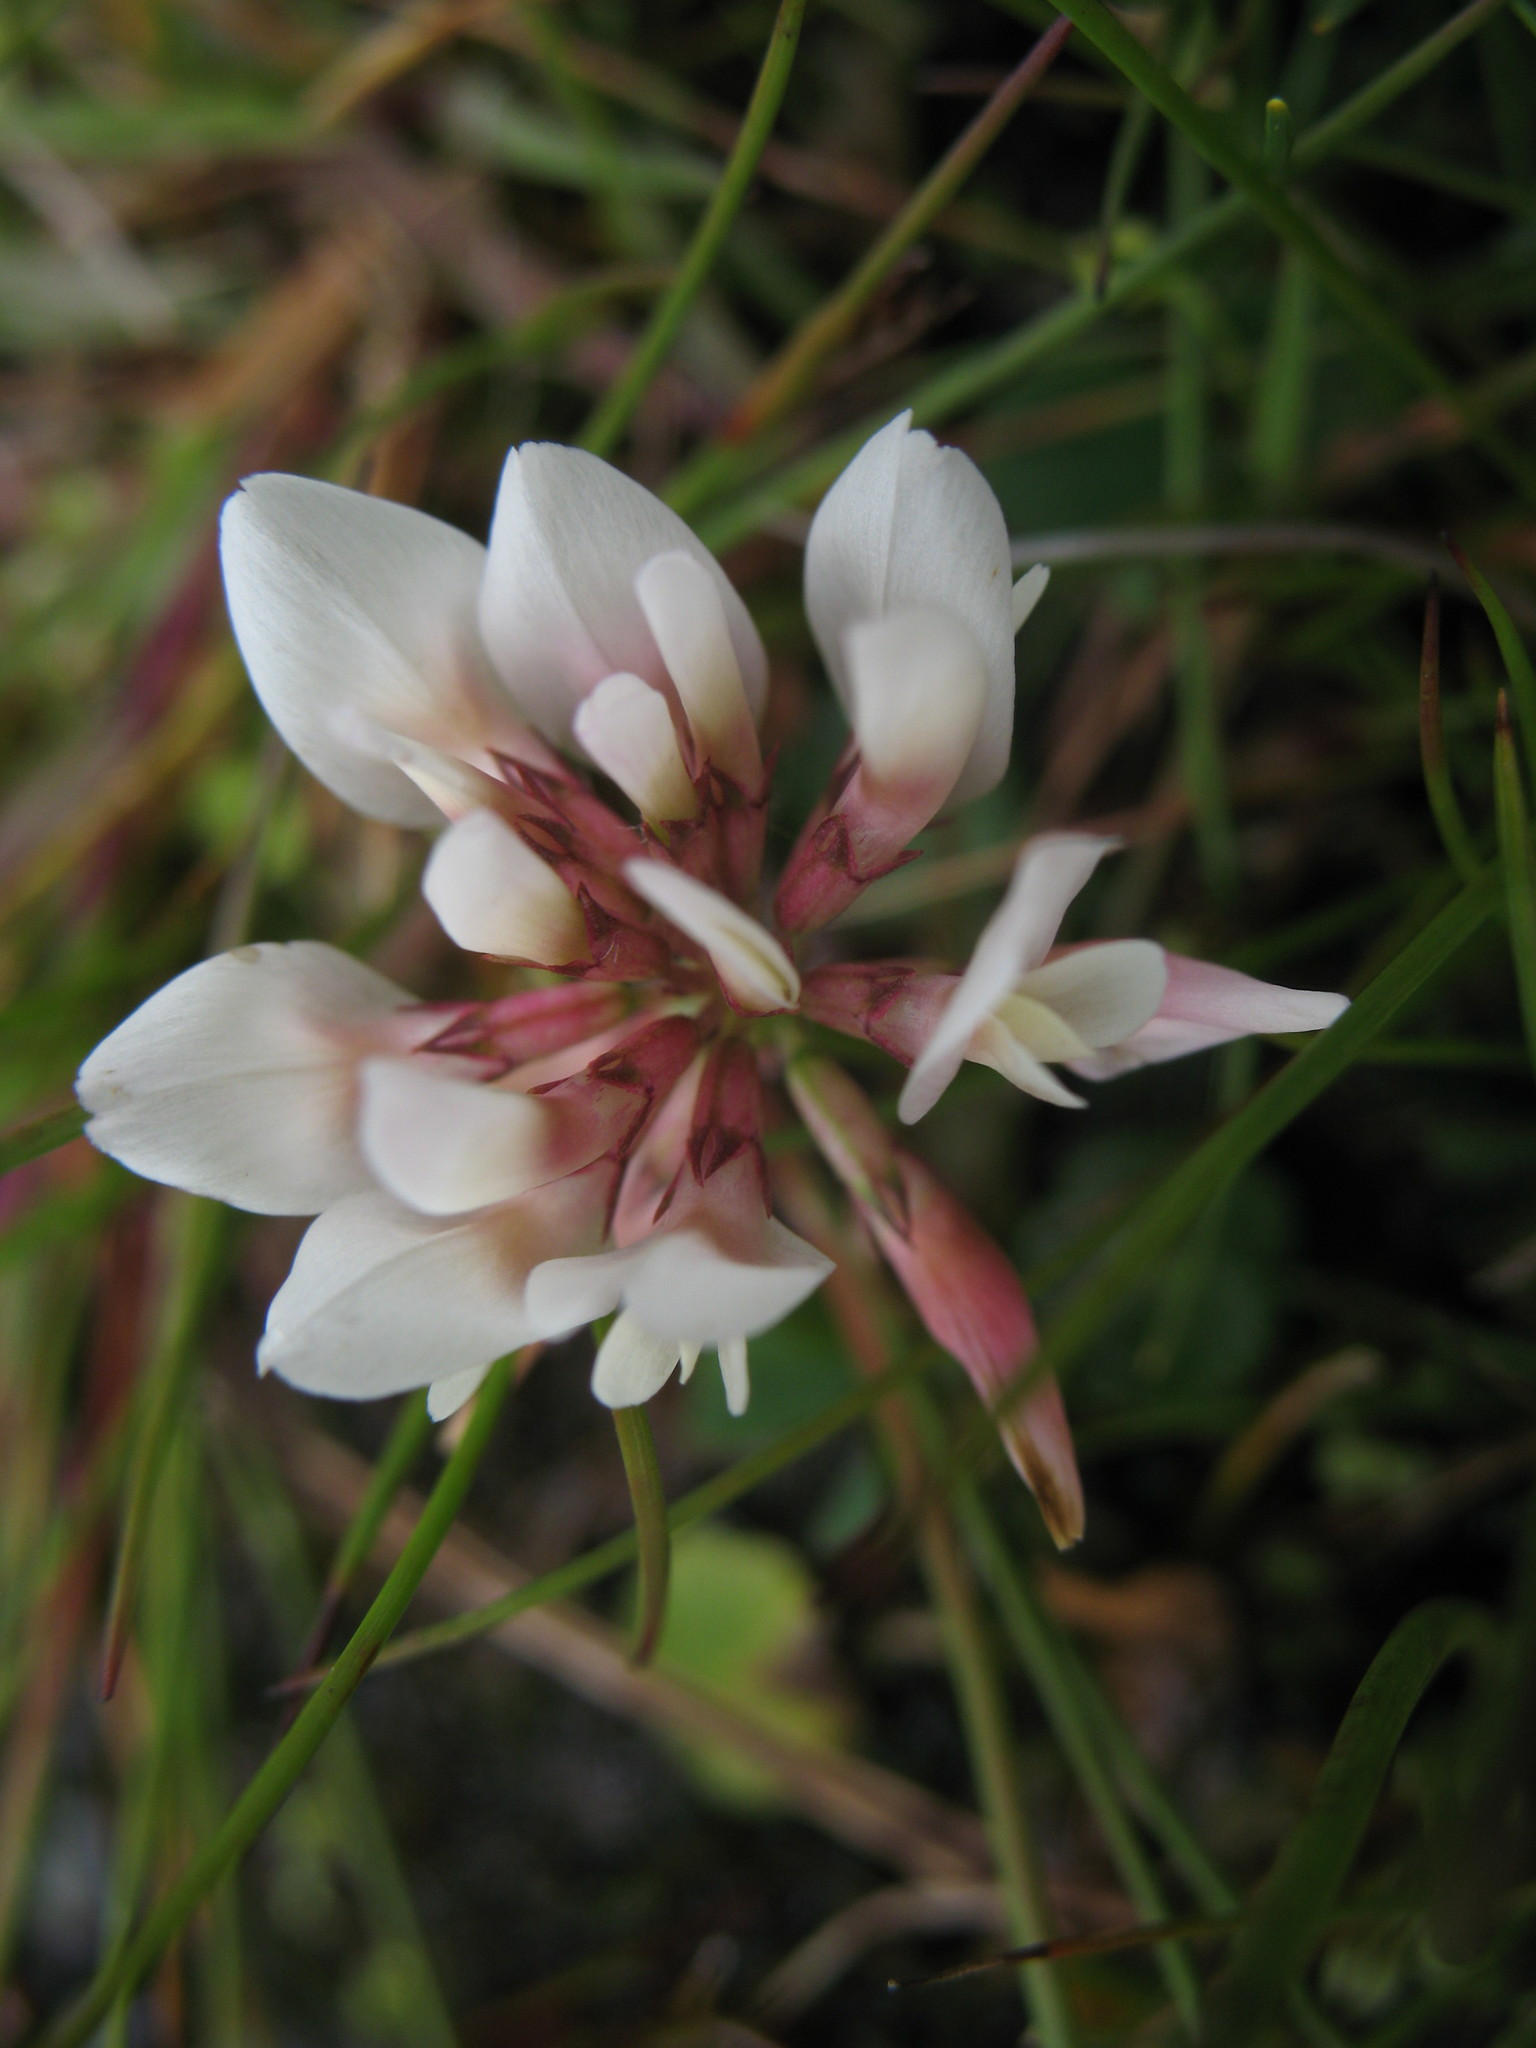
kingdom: Plantae
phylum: Tracheophyta
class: Magnoliopsida
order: Fabales
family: Fabaceae
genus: Trifolium
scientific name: Trifolium repens
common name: White clover
